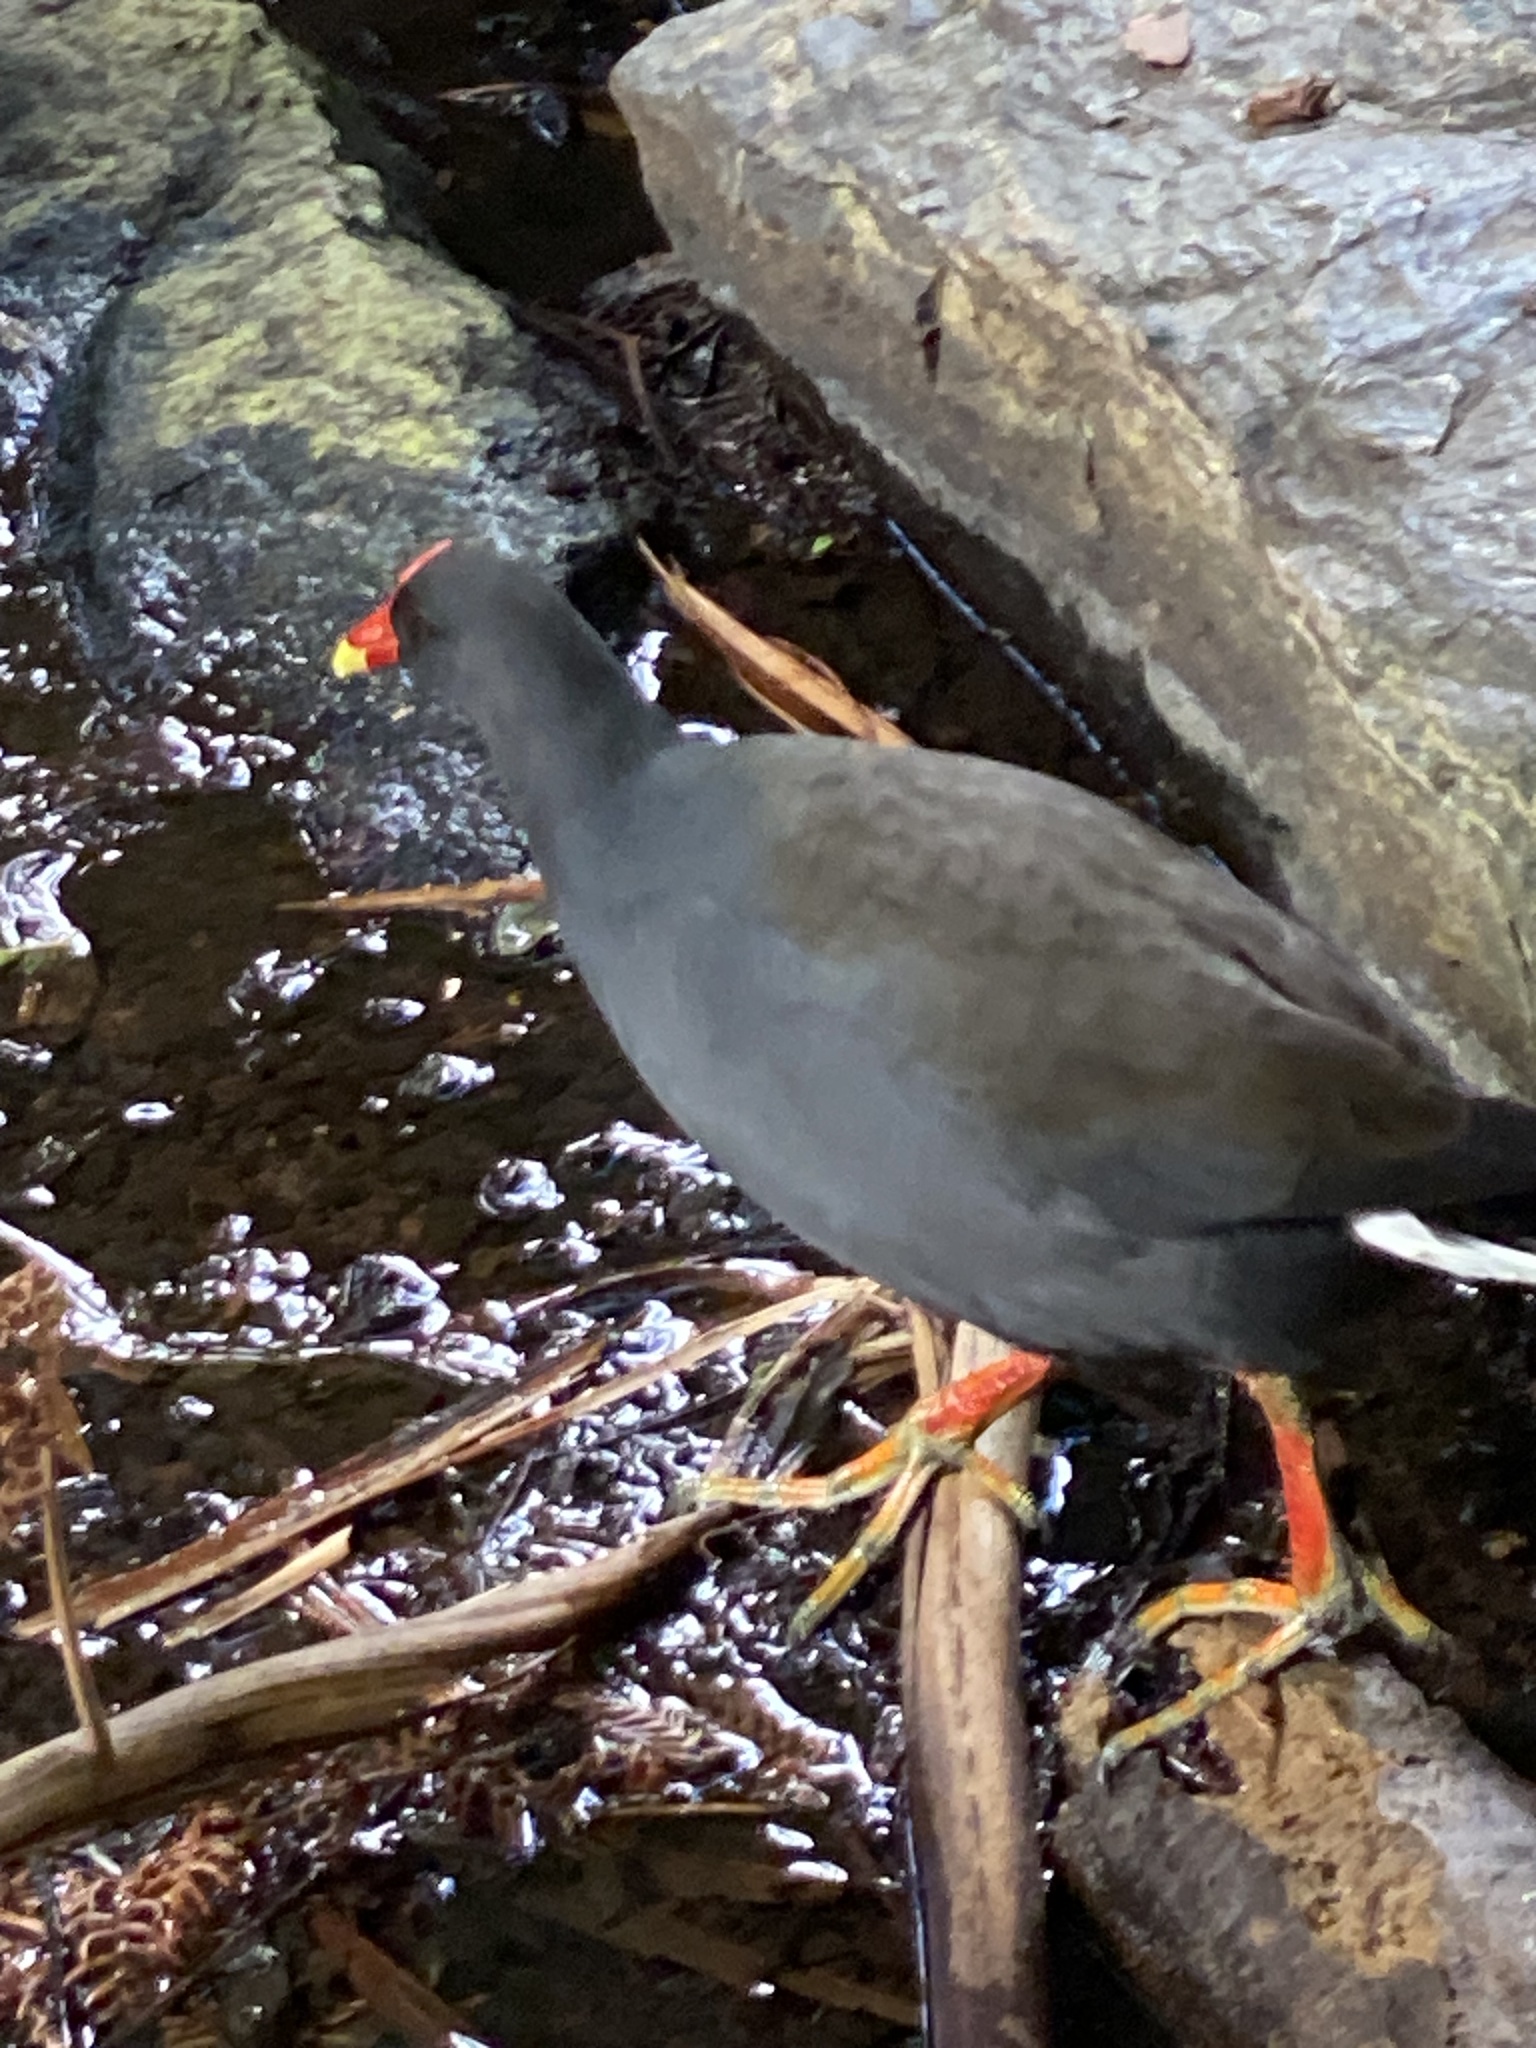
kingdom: Animalia
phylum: Chordata
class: Aves
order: Gruiformes
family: Rallidae
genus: Gallinula
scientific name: Gallinula tenebrosa
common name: Dusky moorhen
